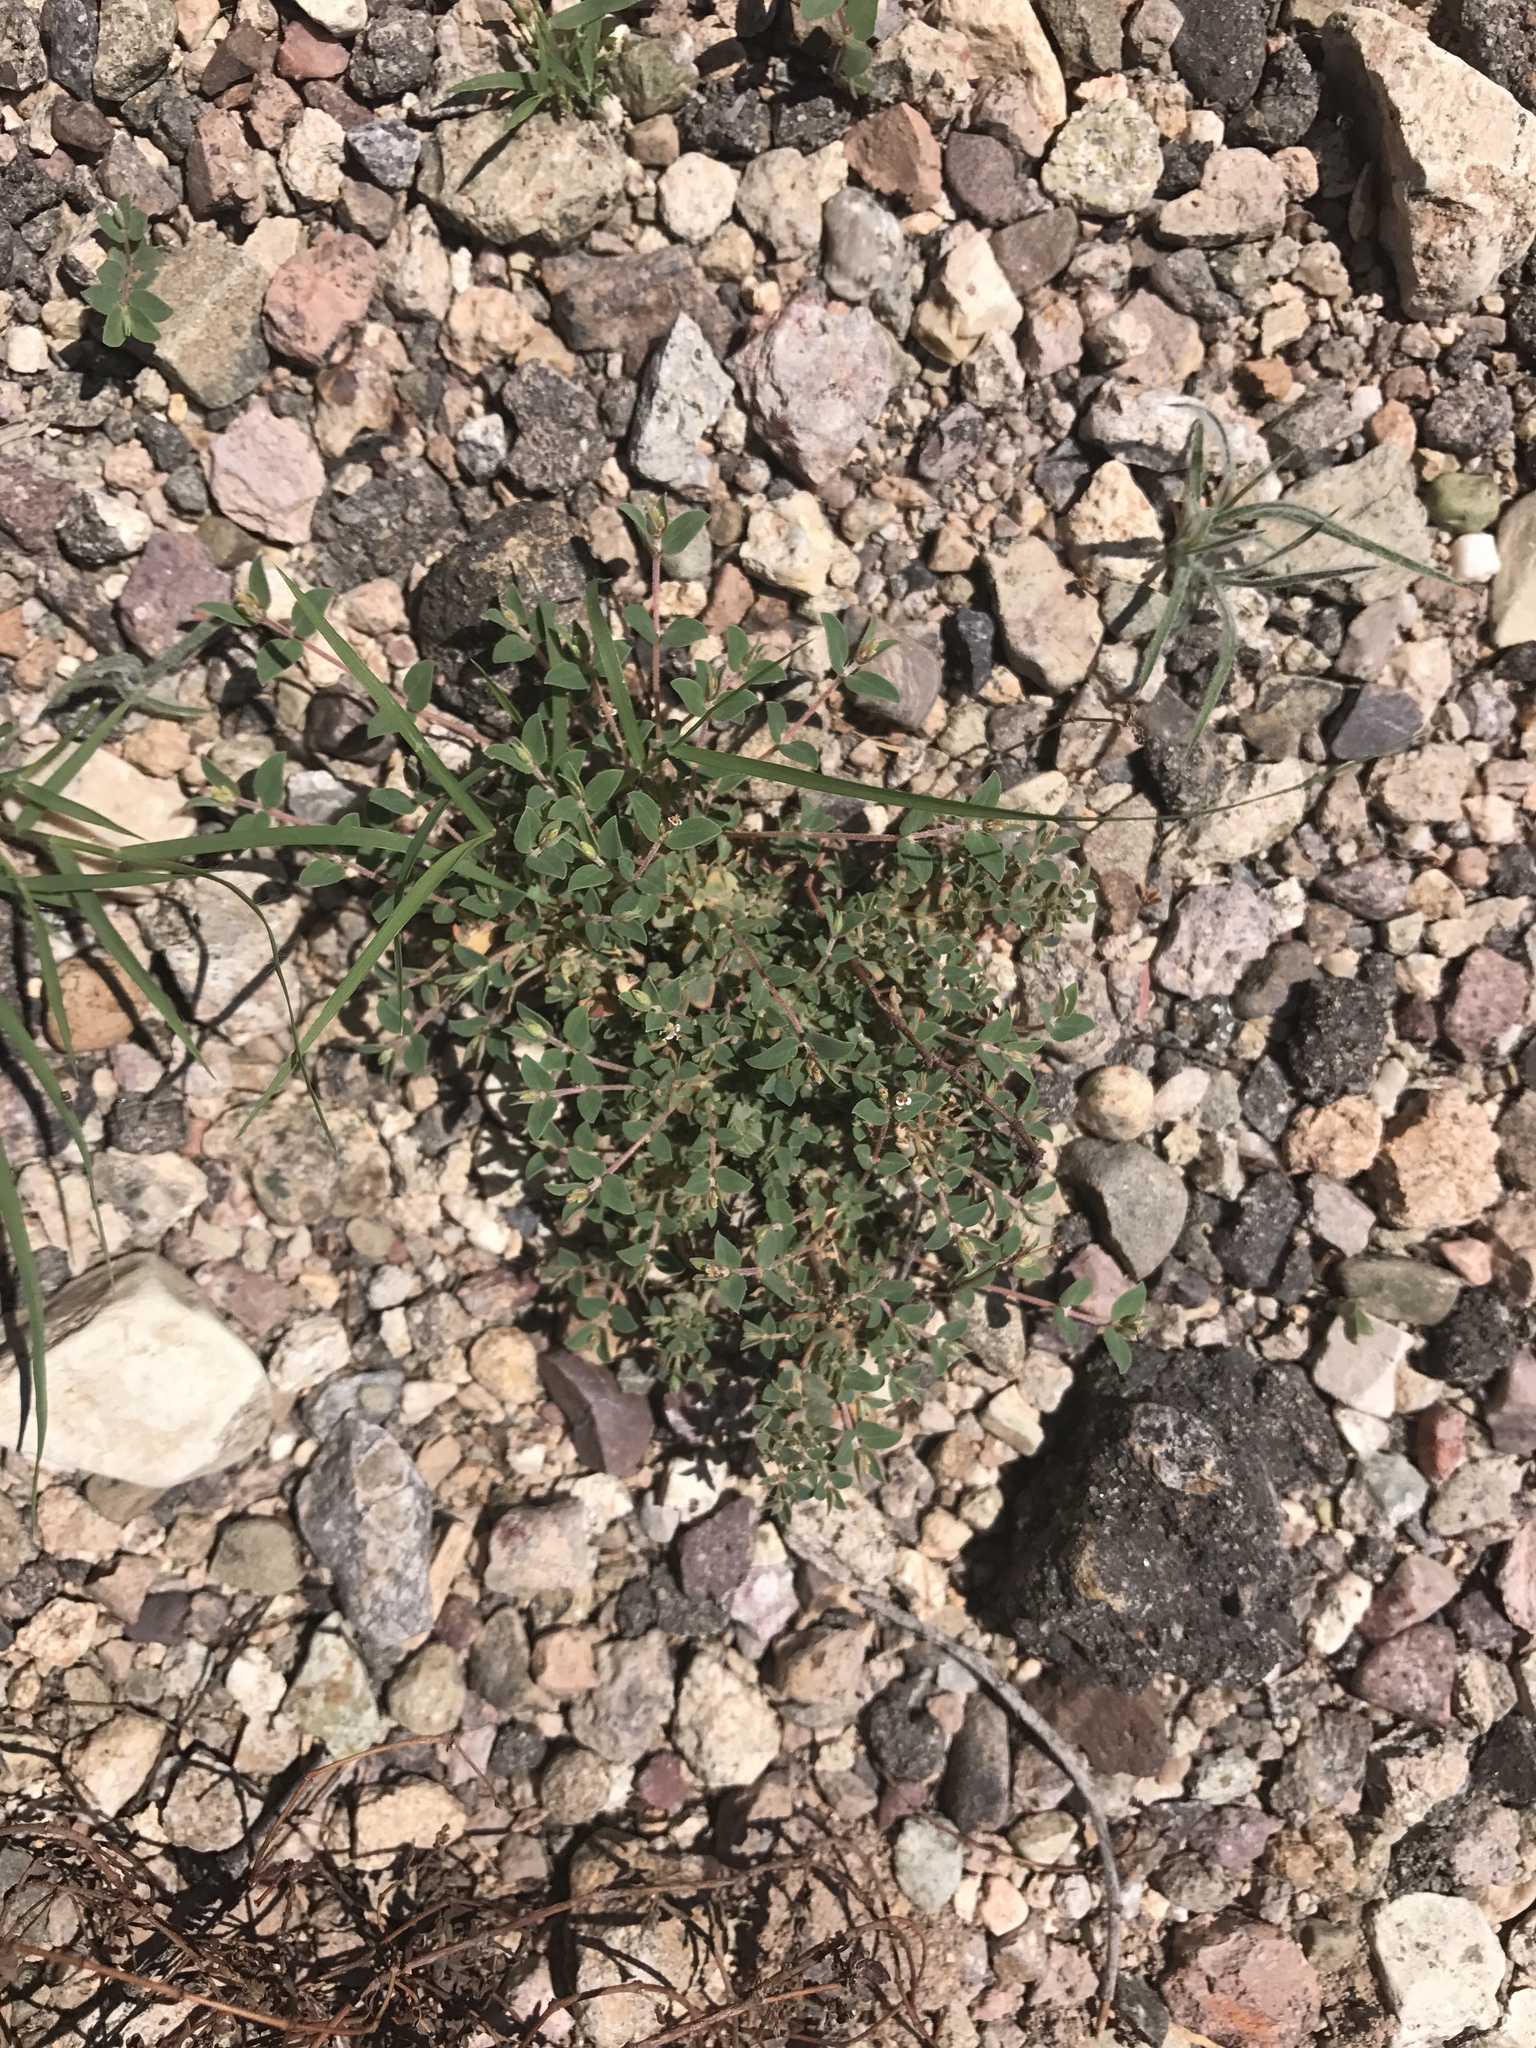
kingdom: Plantae
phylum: Tracheophyta
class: Magnoliopsida
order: Malpighiales
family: Euphorbiaceae
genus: Euphorbia
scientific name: Euphorbia capitellata
